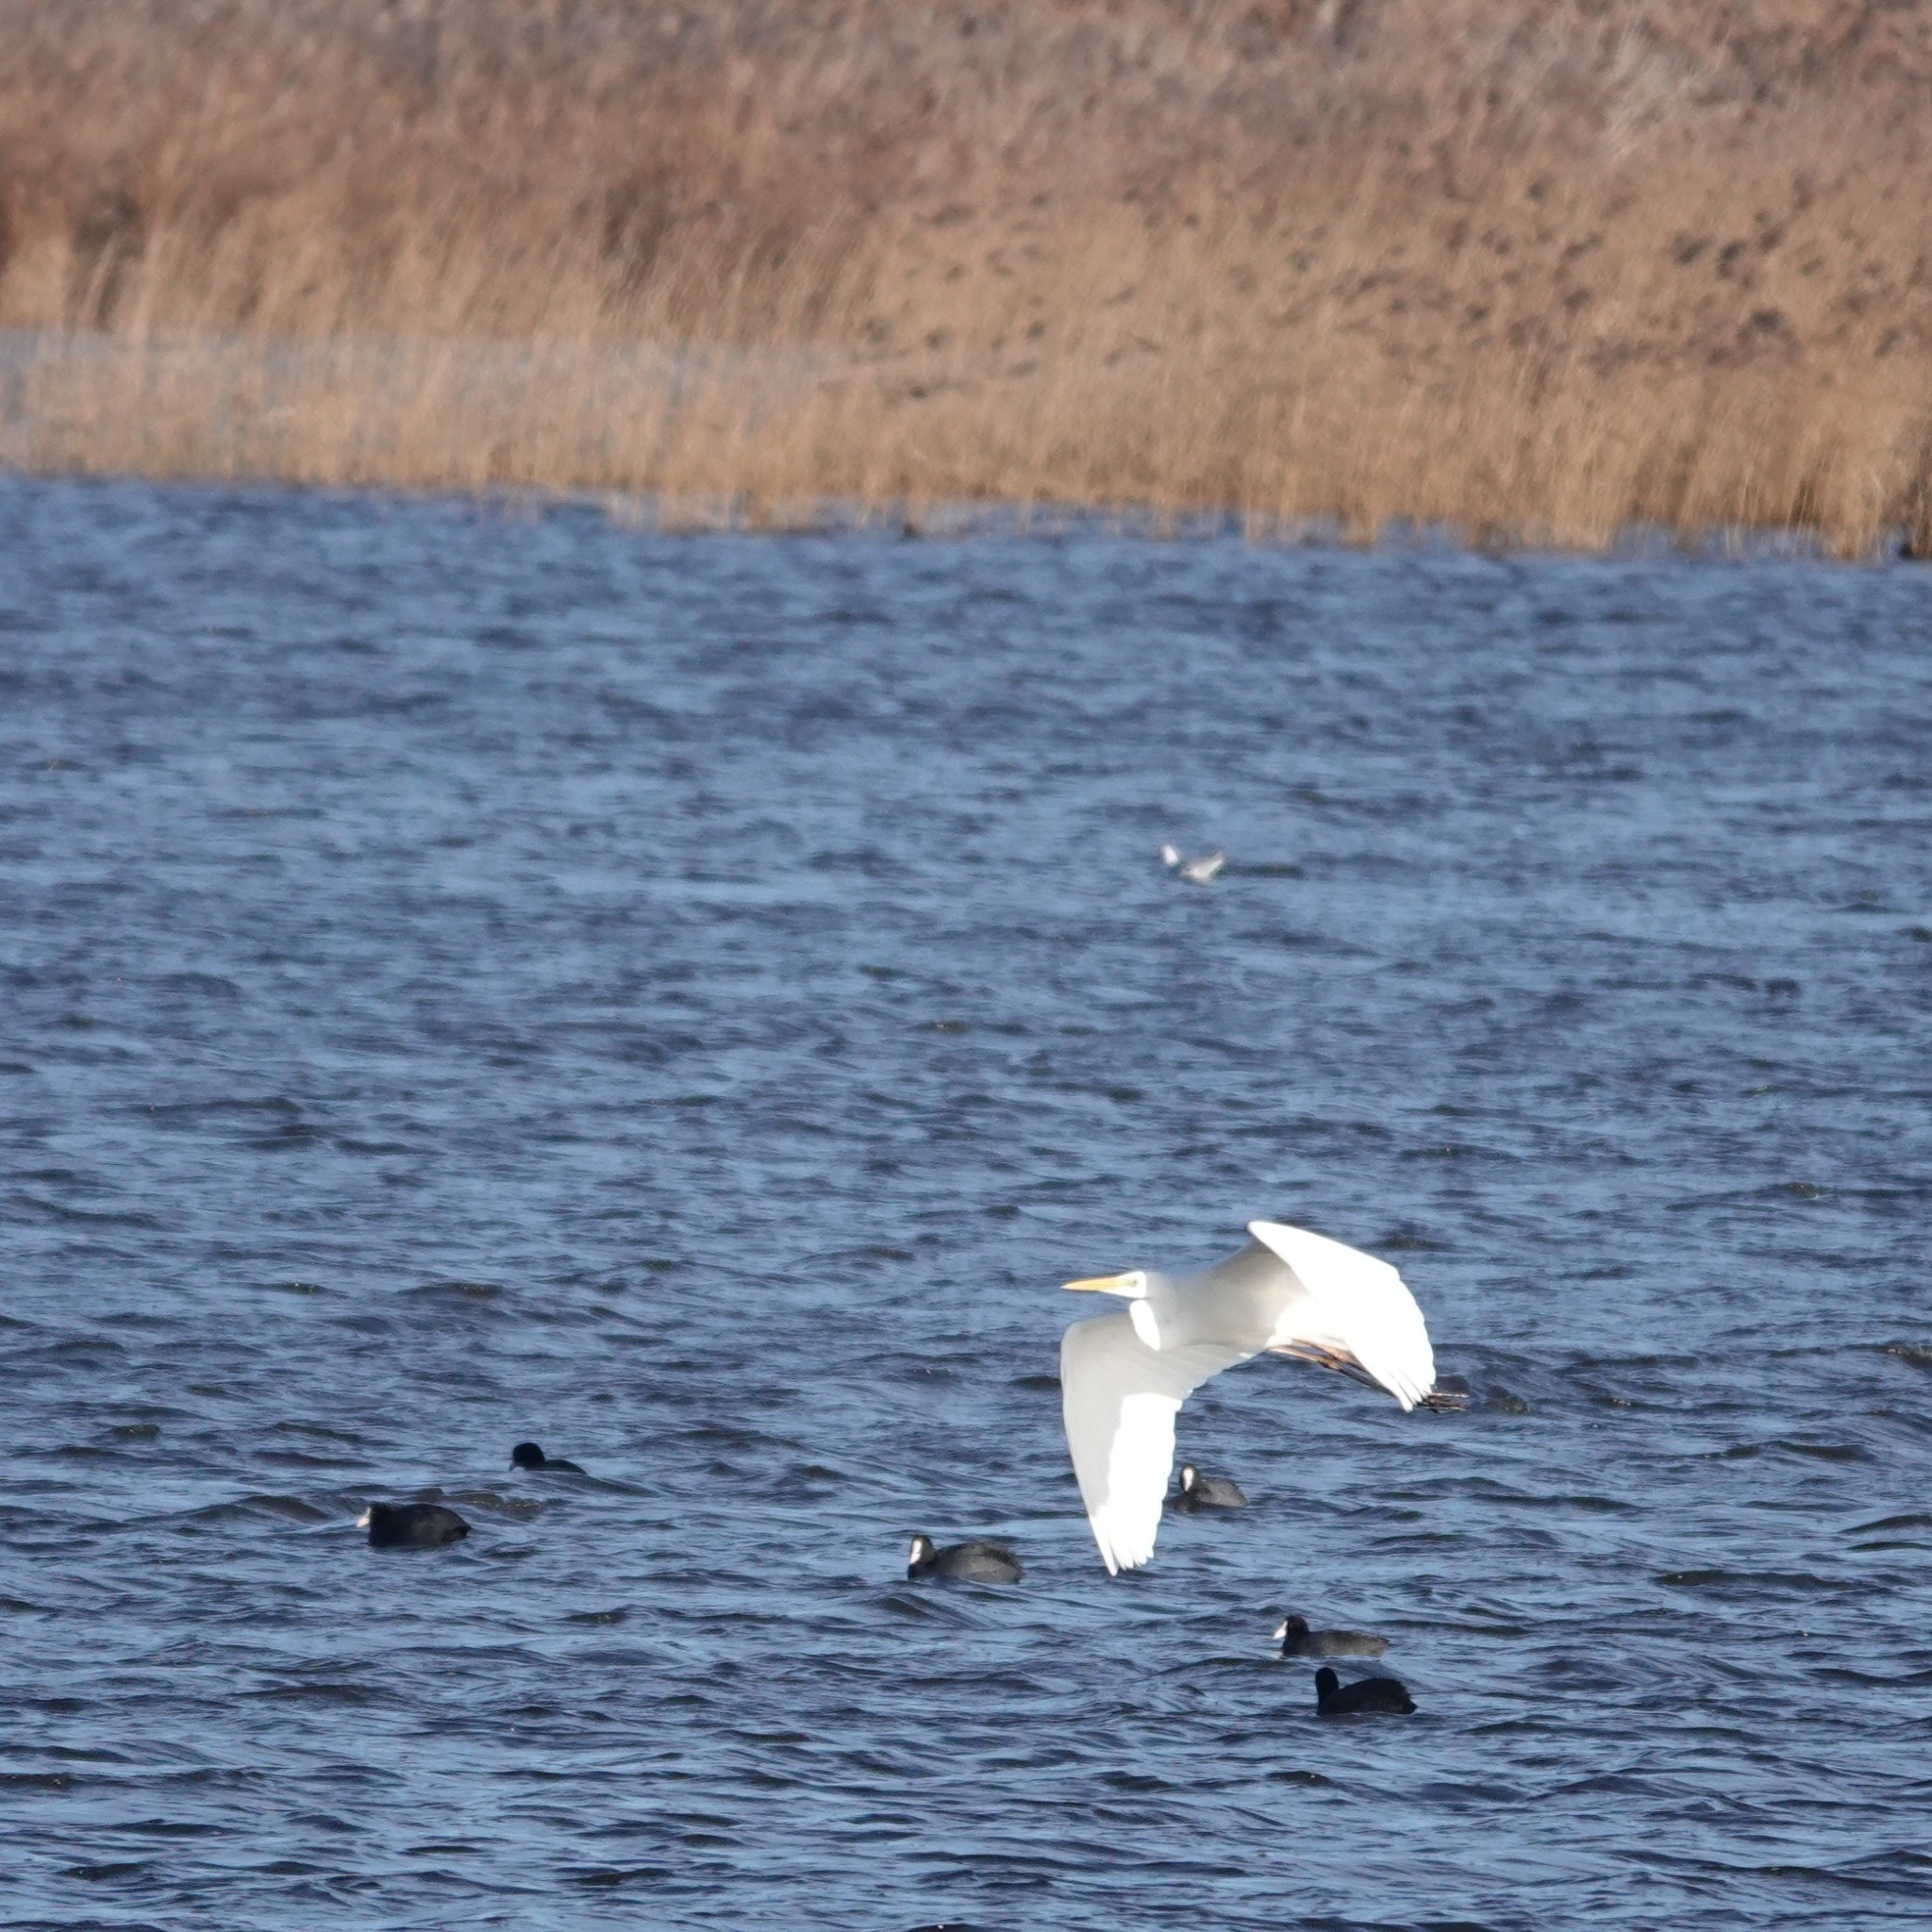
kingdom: Animalia
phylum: Chordata
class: Aves
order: Pelecaniformes
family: Ardeidae
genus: Ardea
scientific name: Ardea alba
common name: Great egret
